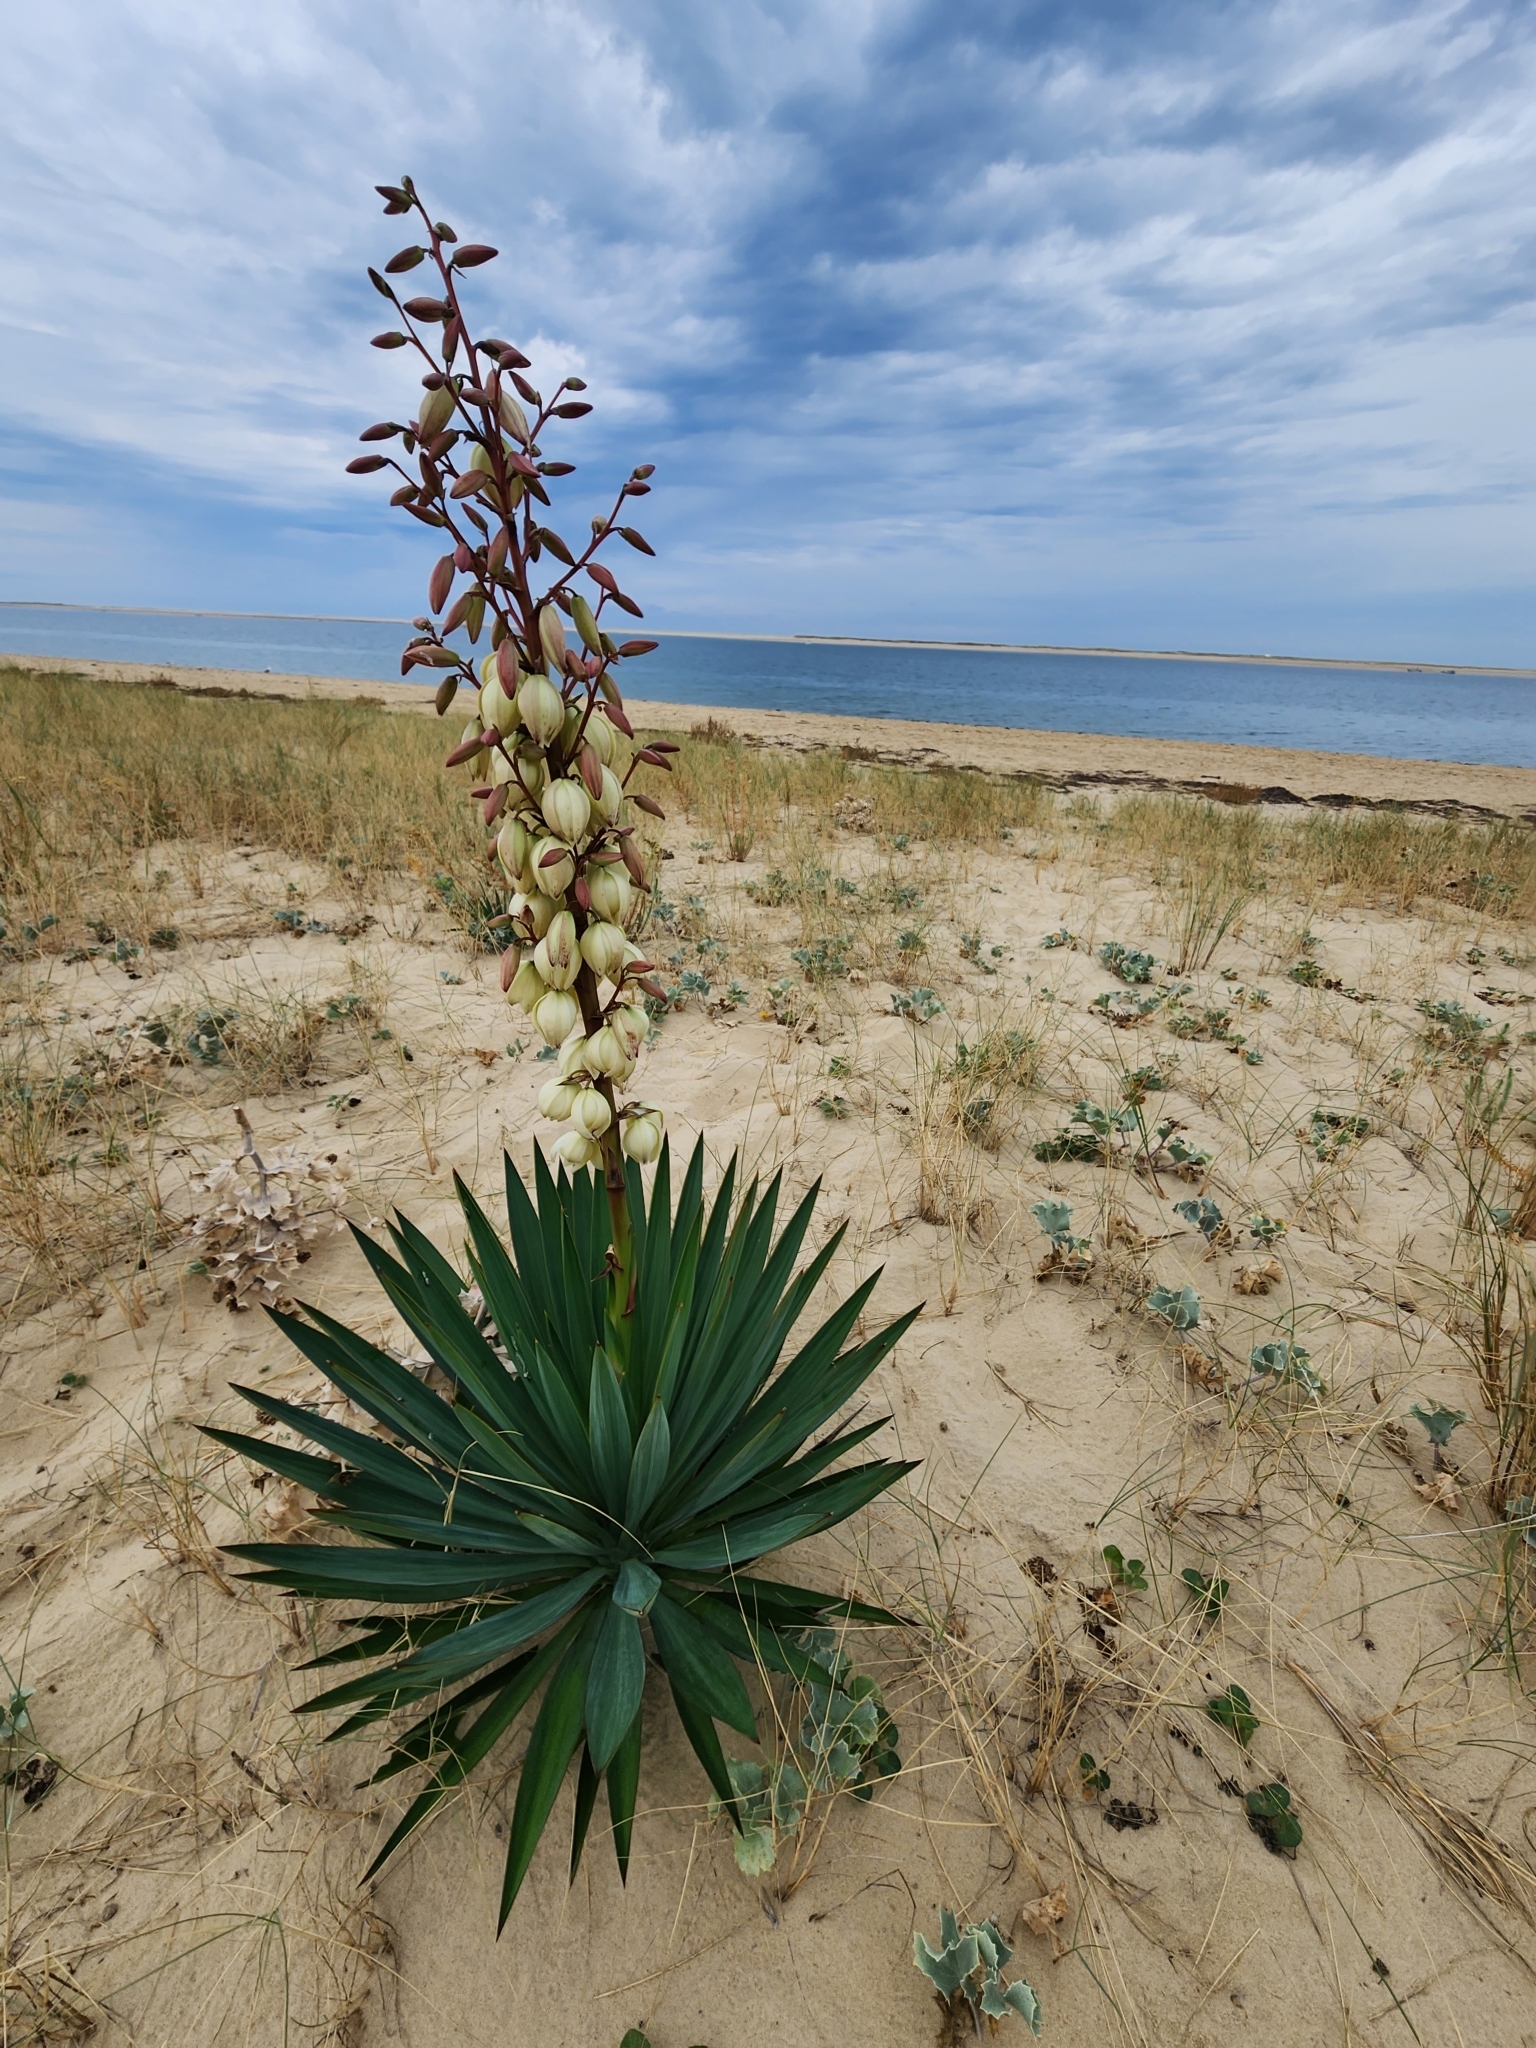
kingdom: Plantae
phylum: Tracheophyta
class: Liliopsida
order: Asparagales
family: Asparagaceae
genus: Yucca
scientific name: Yucca gloriosa
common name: Spanish-dagger
